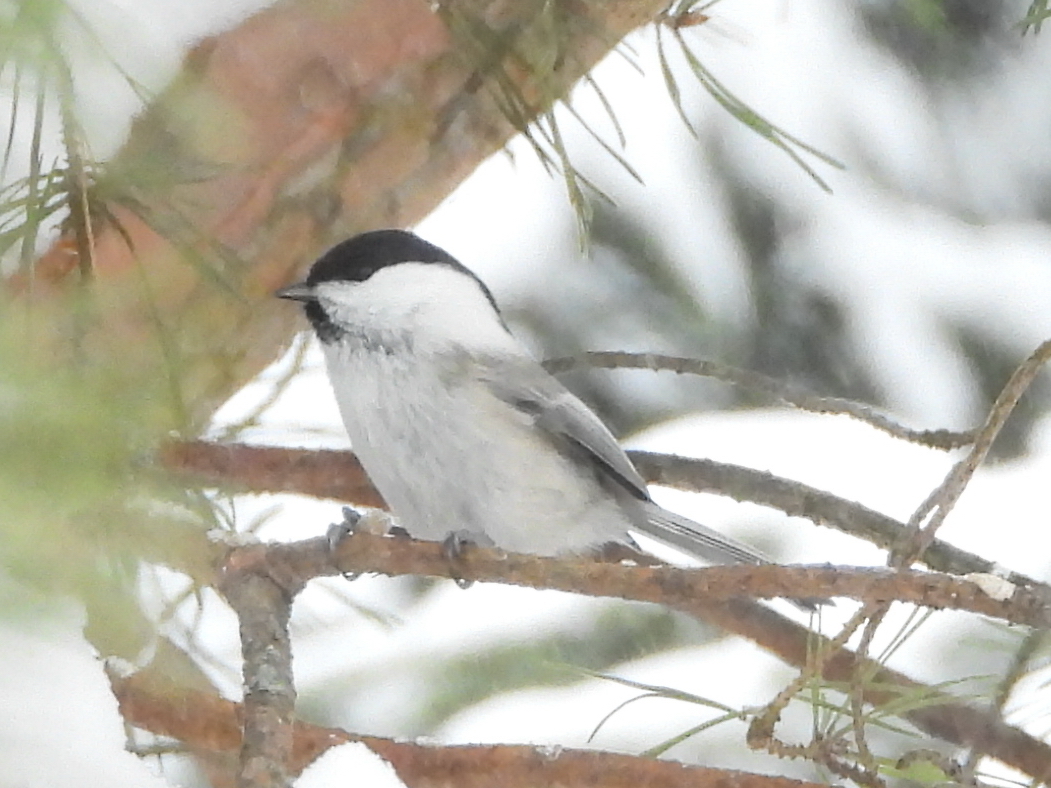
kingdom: Animalia
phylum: Chordata
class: Aves
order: Passeriformes
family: Paridae
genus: Poecile
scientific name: Poecile montanus
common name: Willow tit
